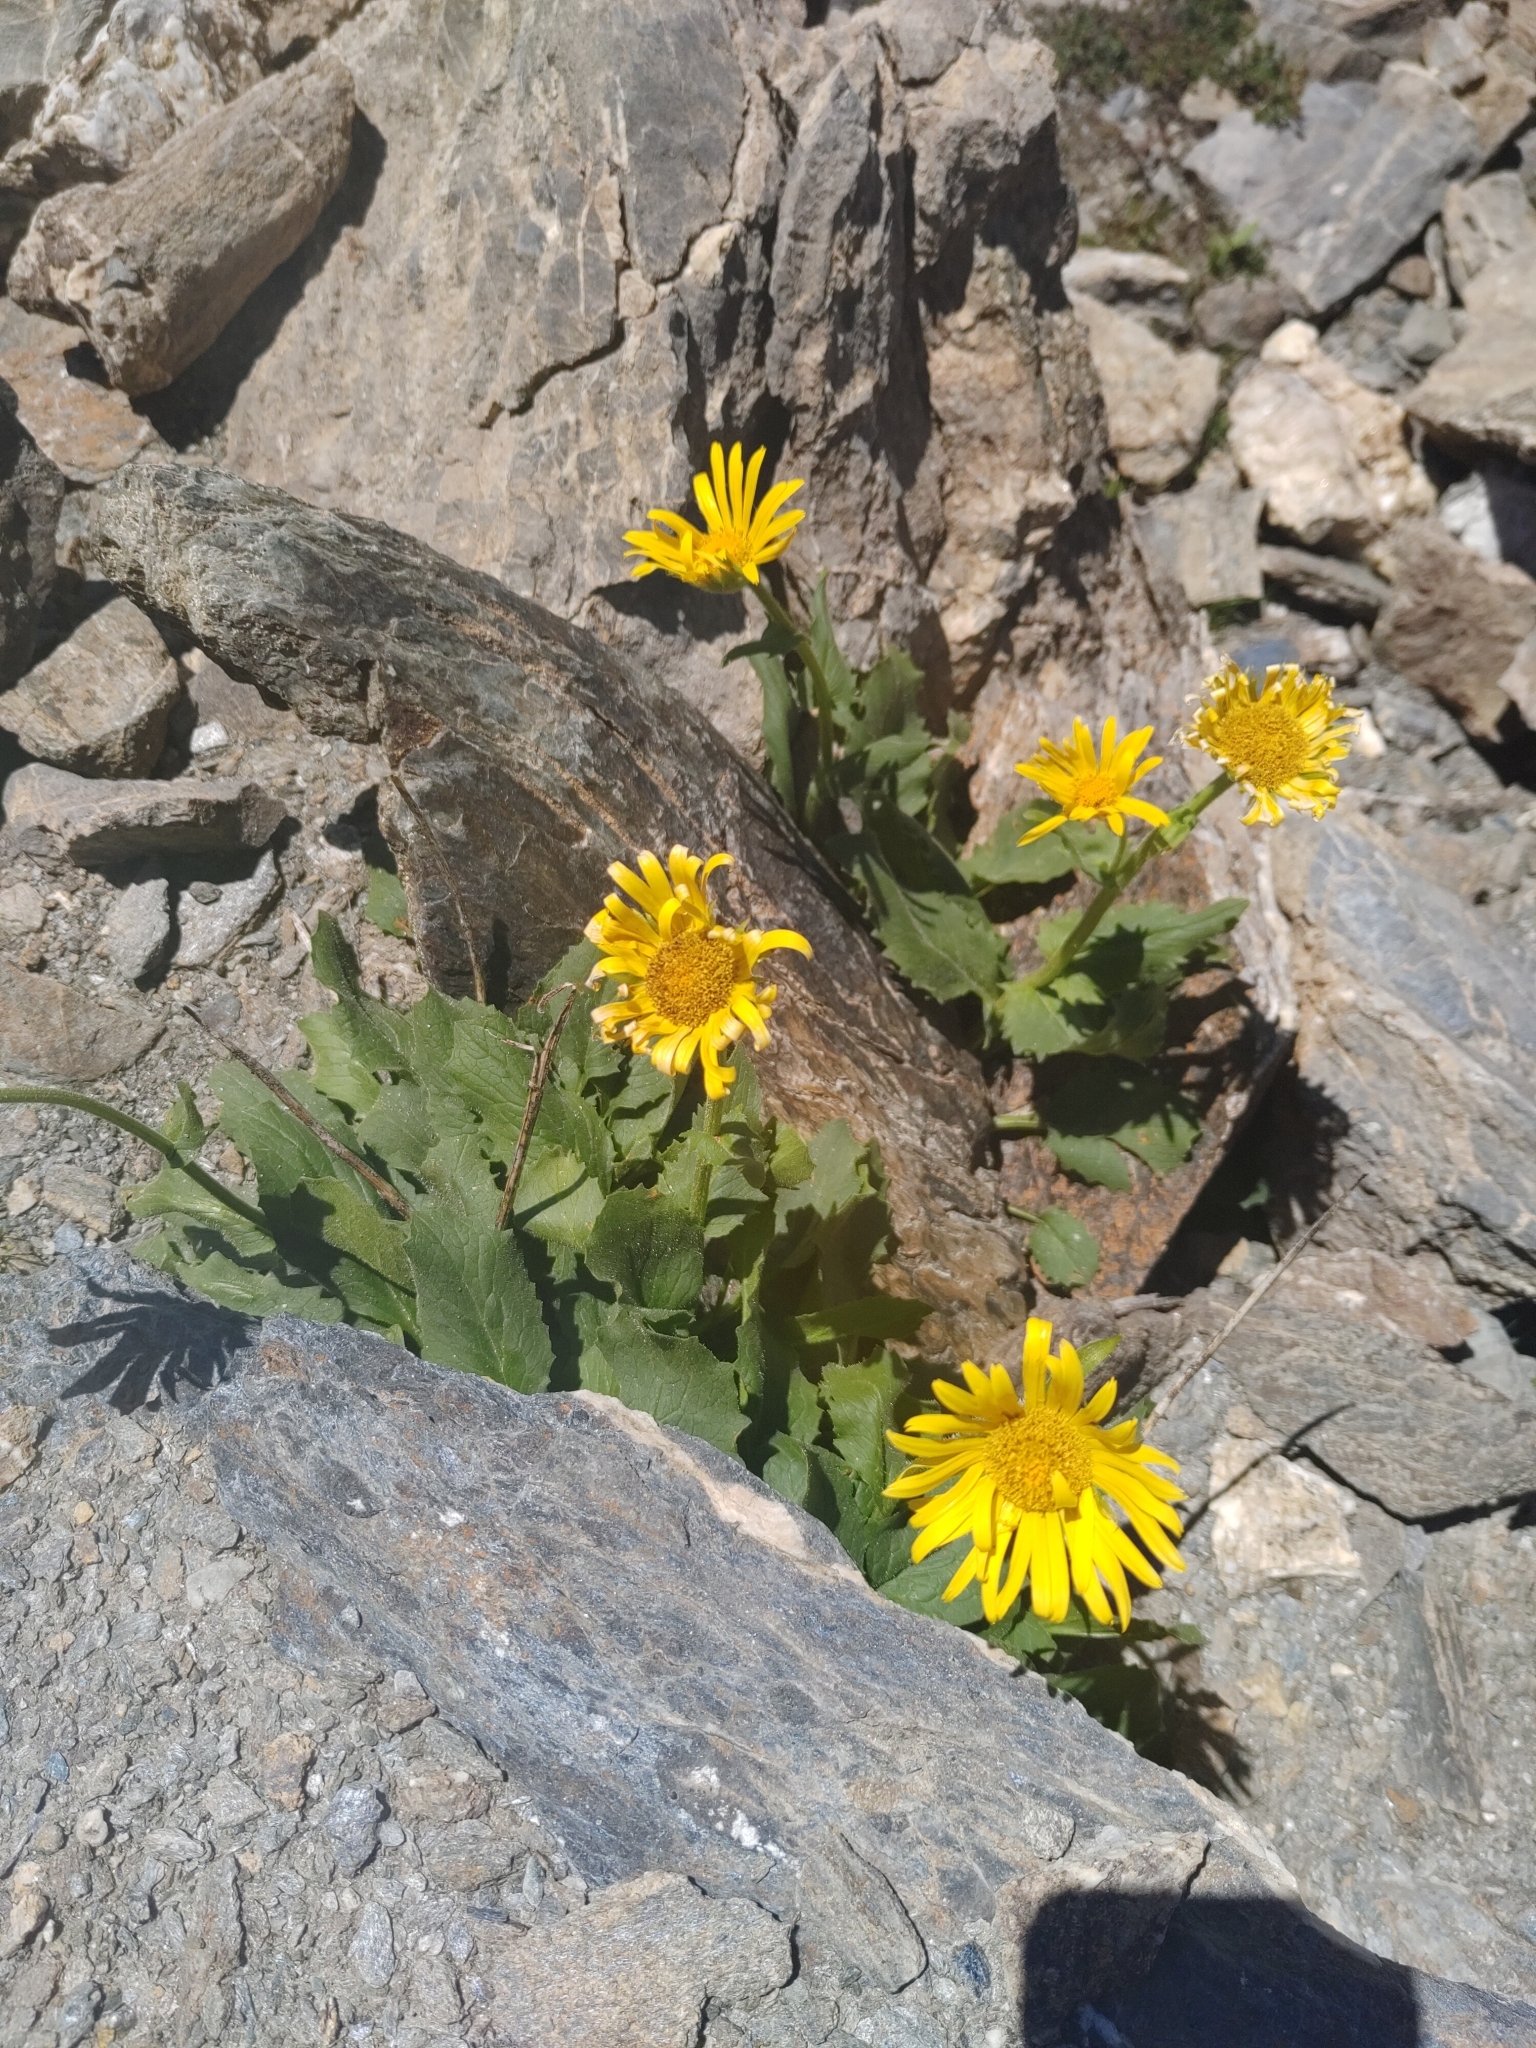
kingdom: Plantae
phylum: Tracheophyta
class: Magnoliopsida
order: Asterales
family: Asteraceae
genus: Doronicum
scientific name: Doronicum grandiflorum
